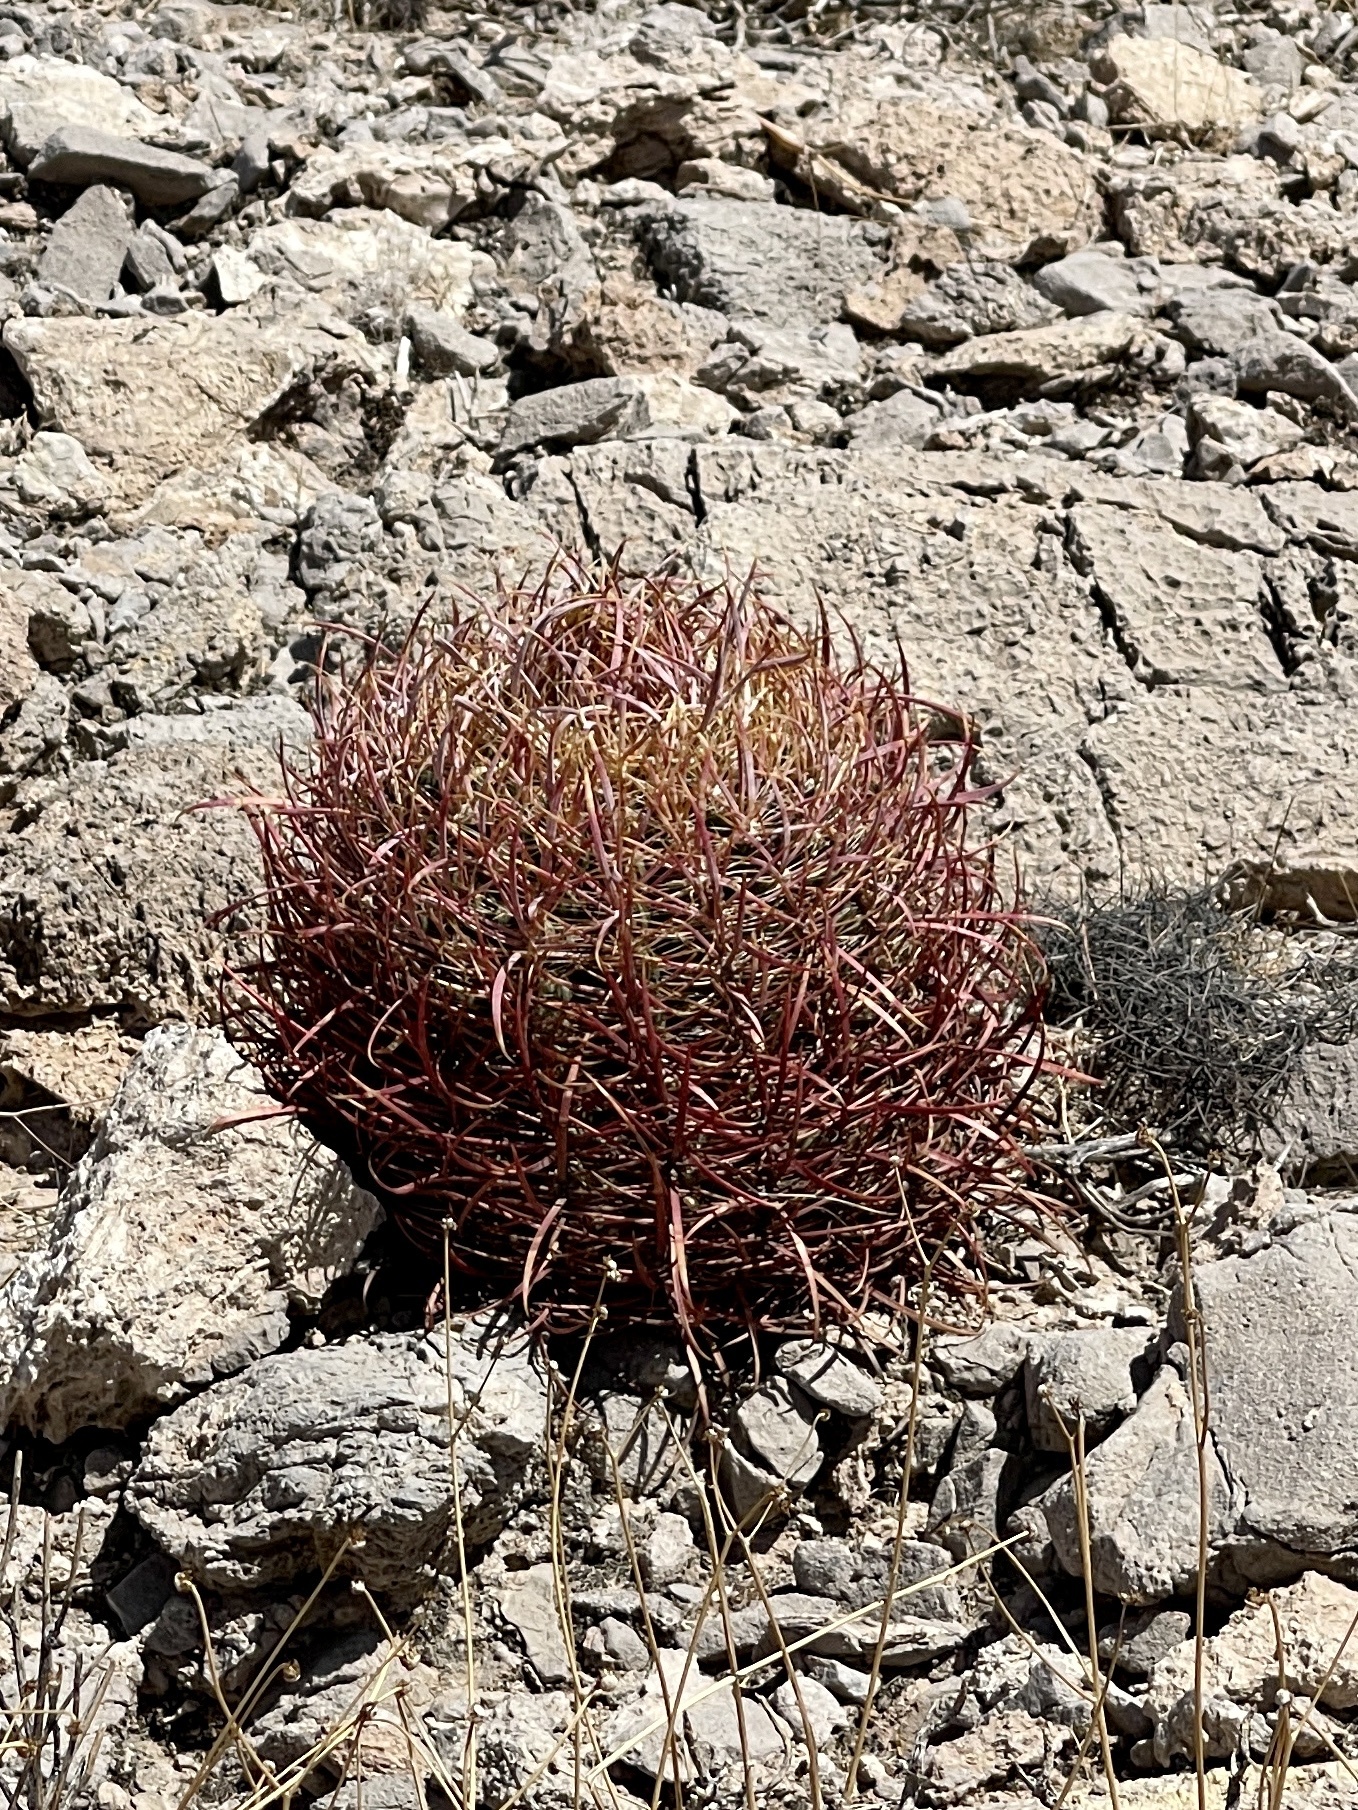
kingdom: Plantae
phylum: Tracheophyta
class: Magnoliopsida
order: Caryophyllales
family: Cactaceae
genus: Ferocactus
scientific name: Ferocactus cylindraceus
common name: California barrel cactus
